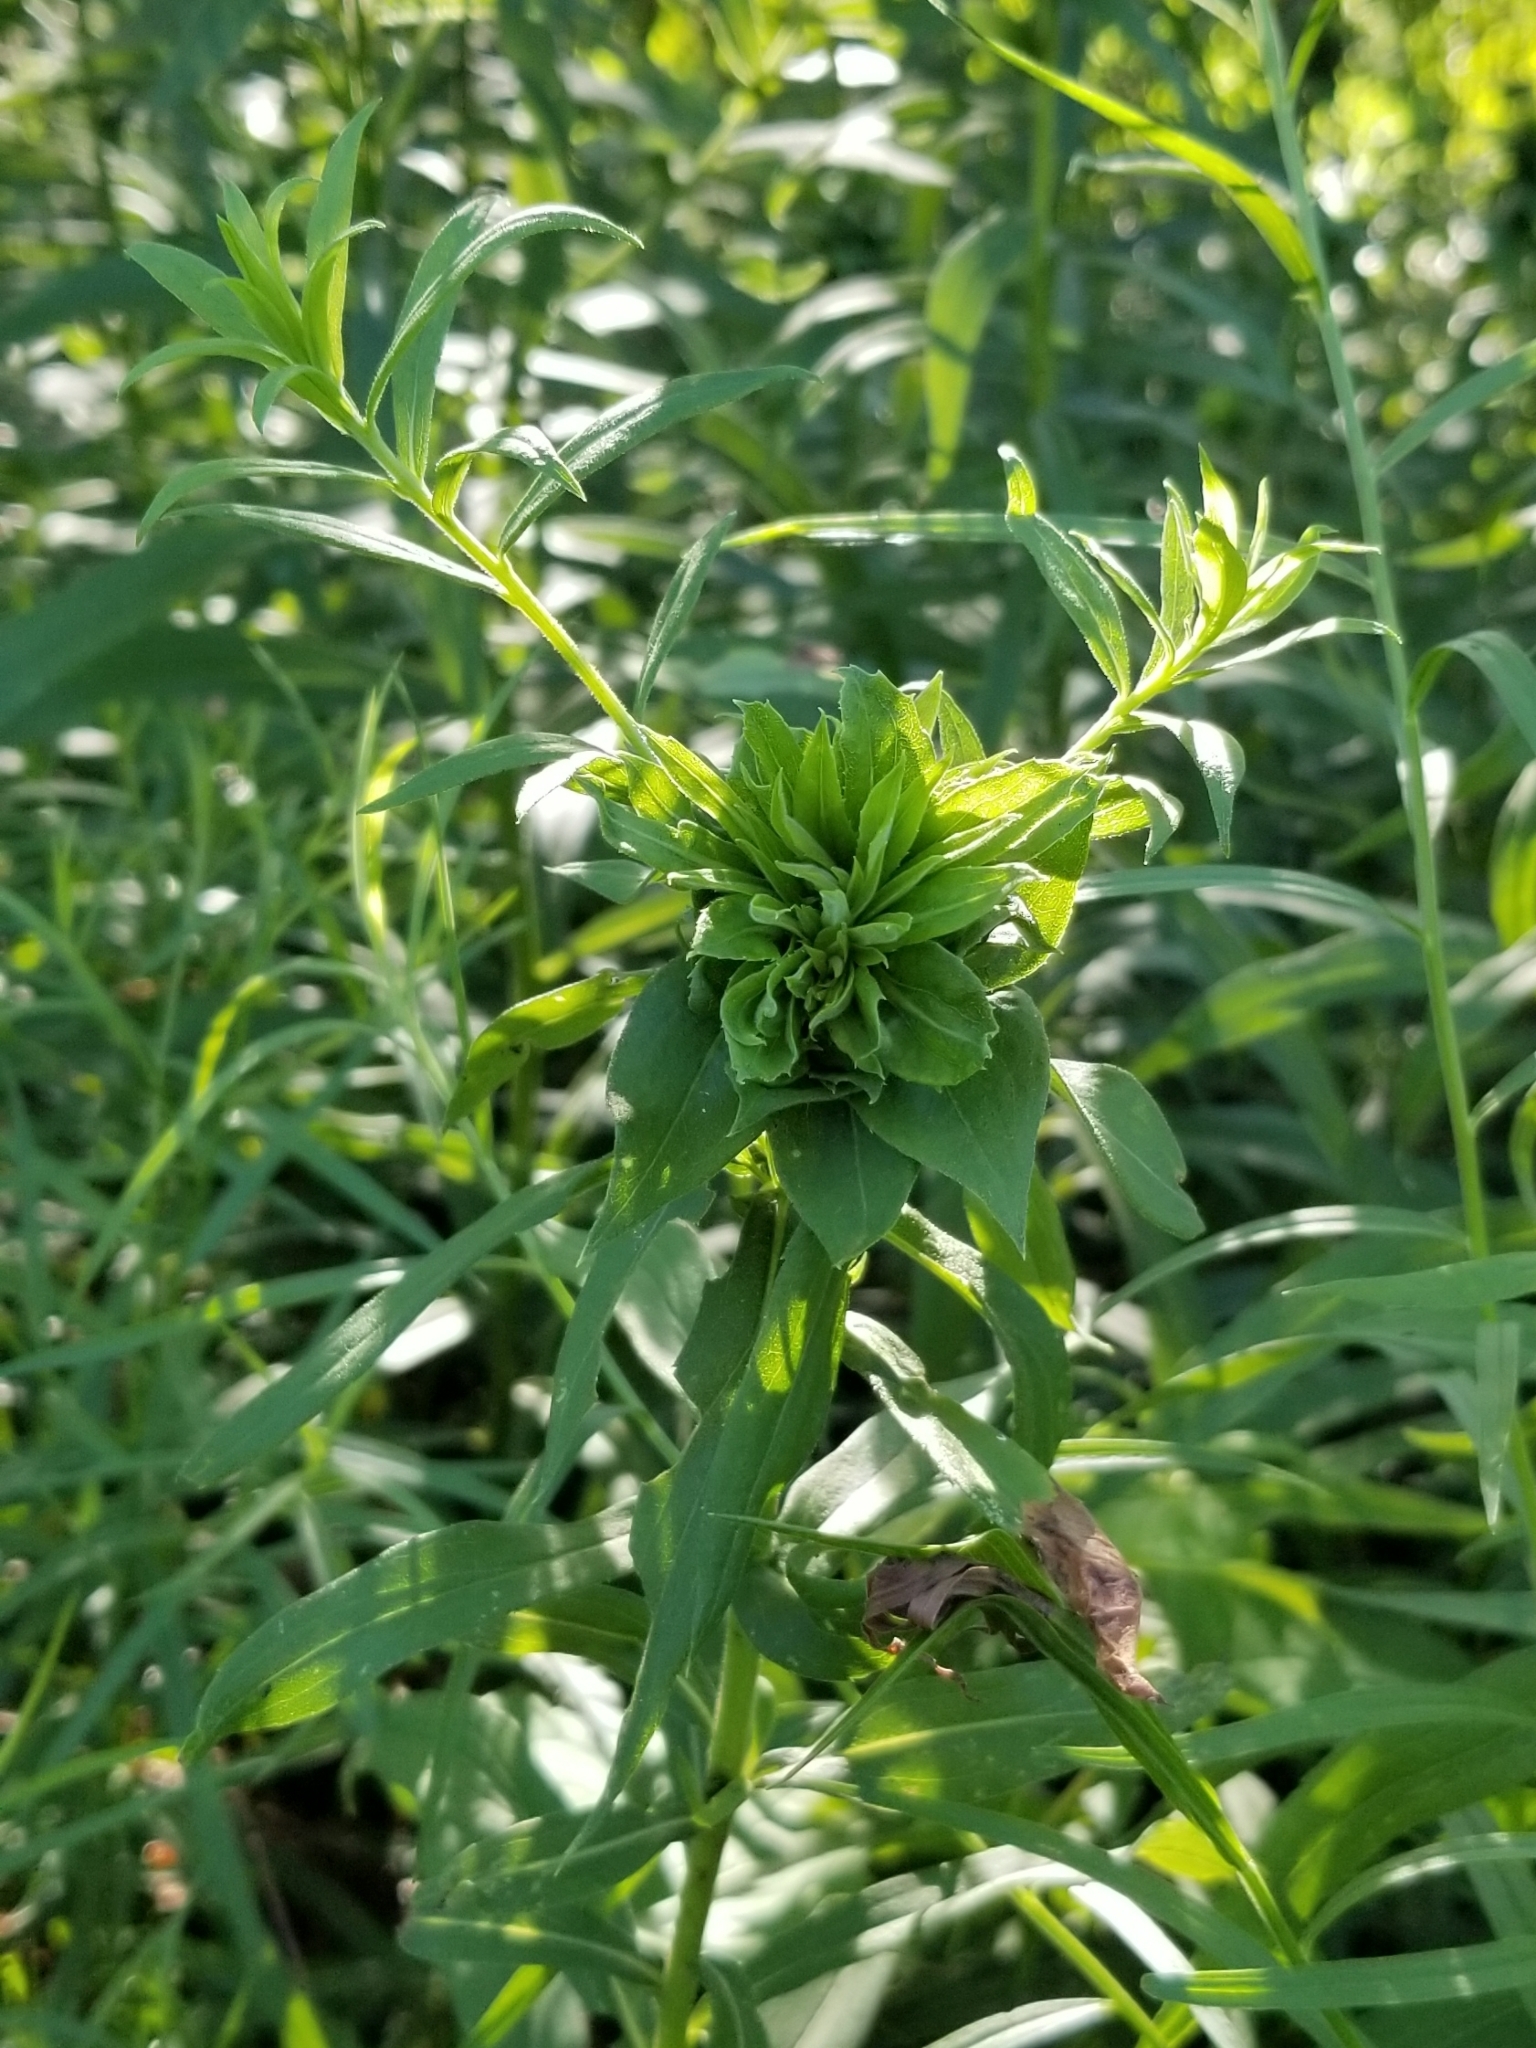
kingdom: Animalia
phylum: Arthropoda
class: Insecta
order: Diptera
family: Cecidomyiidae
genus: Rhopalomyia
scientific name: Rhopalomyia solidaginis
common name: Goldenrod bunch gall midge
